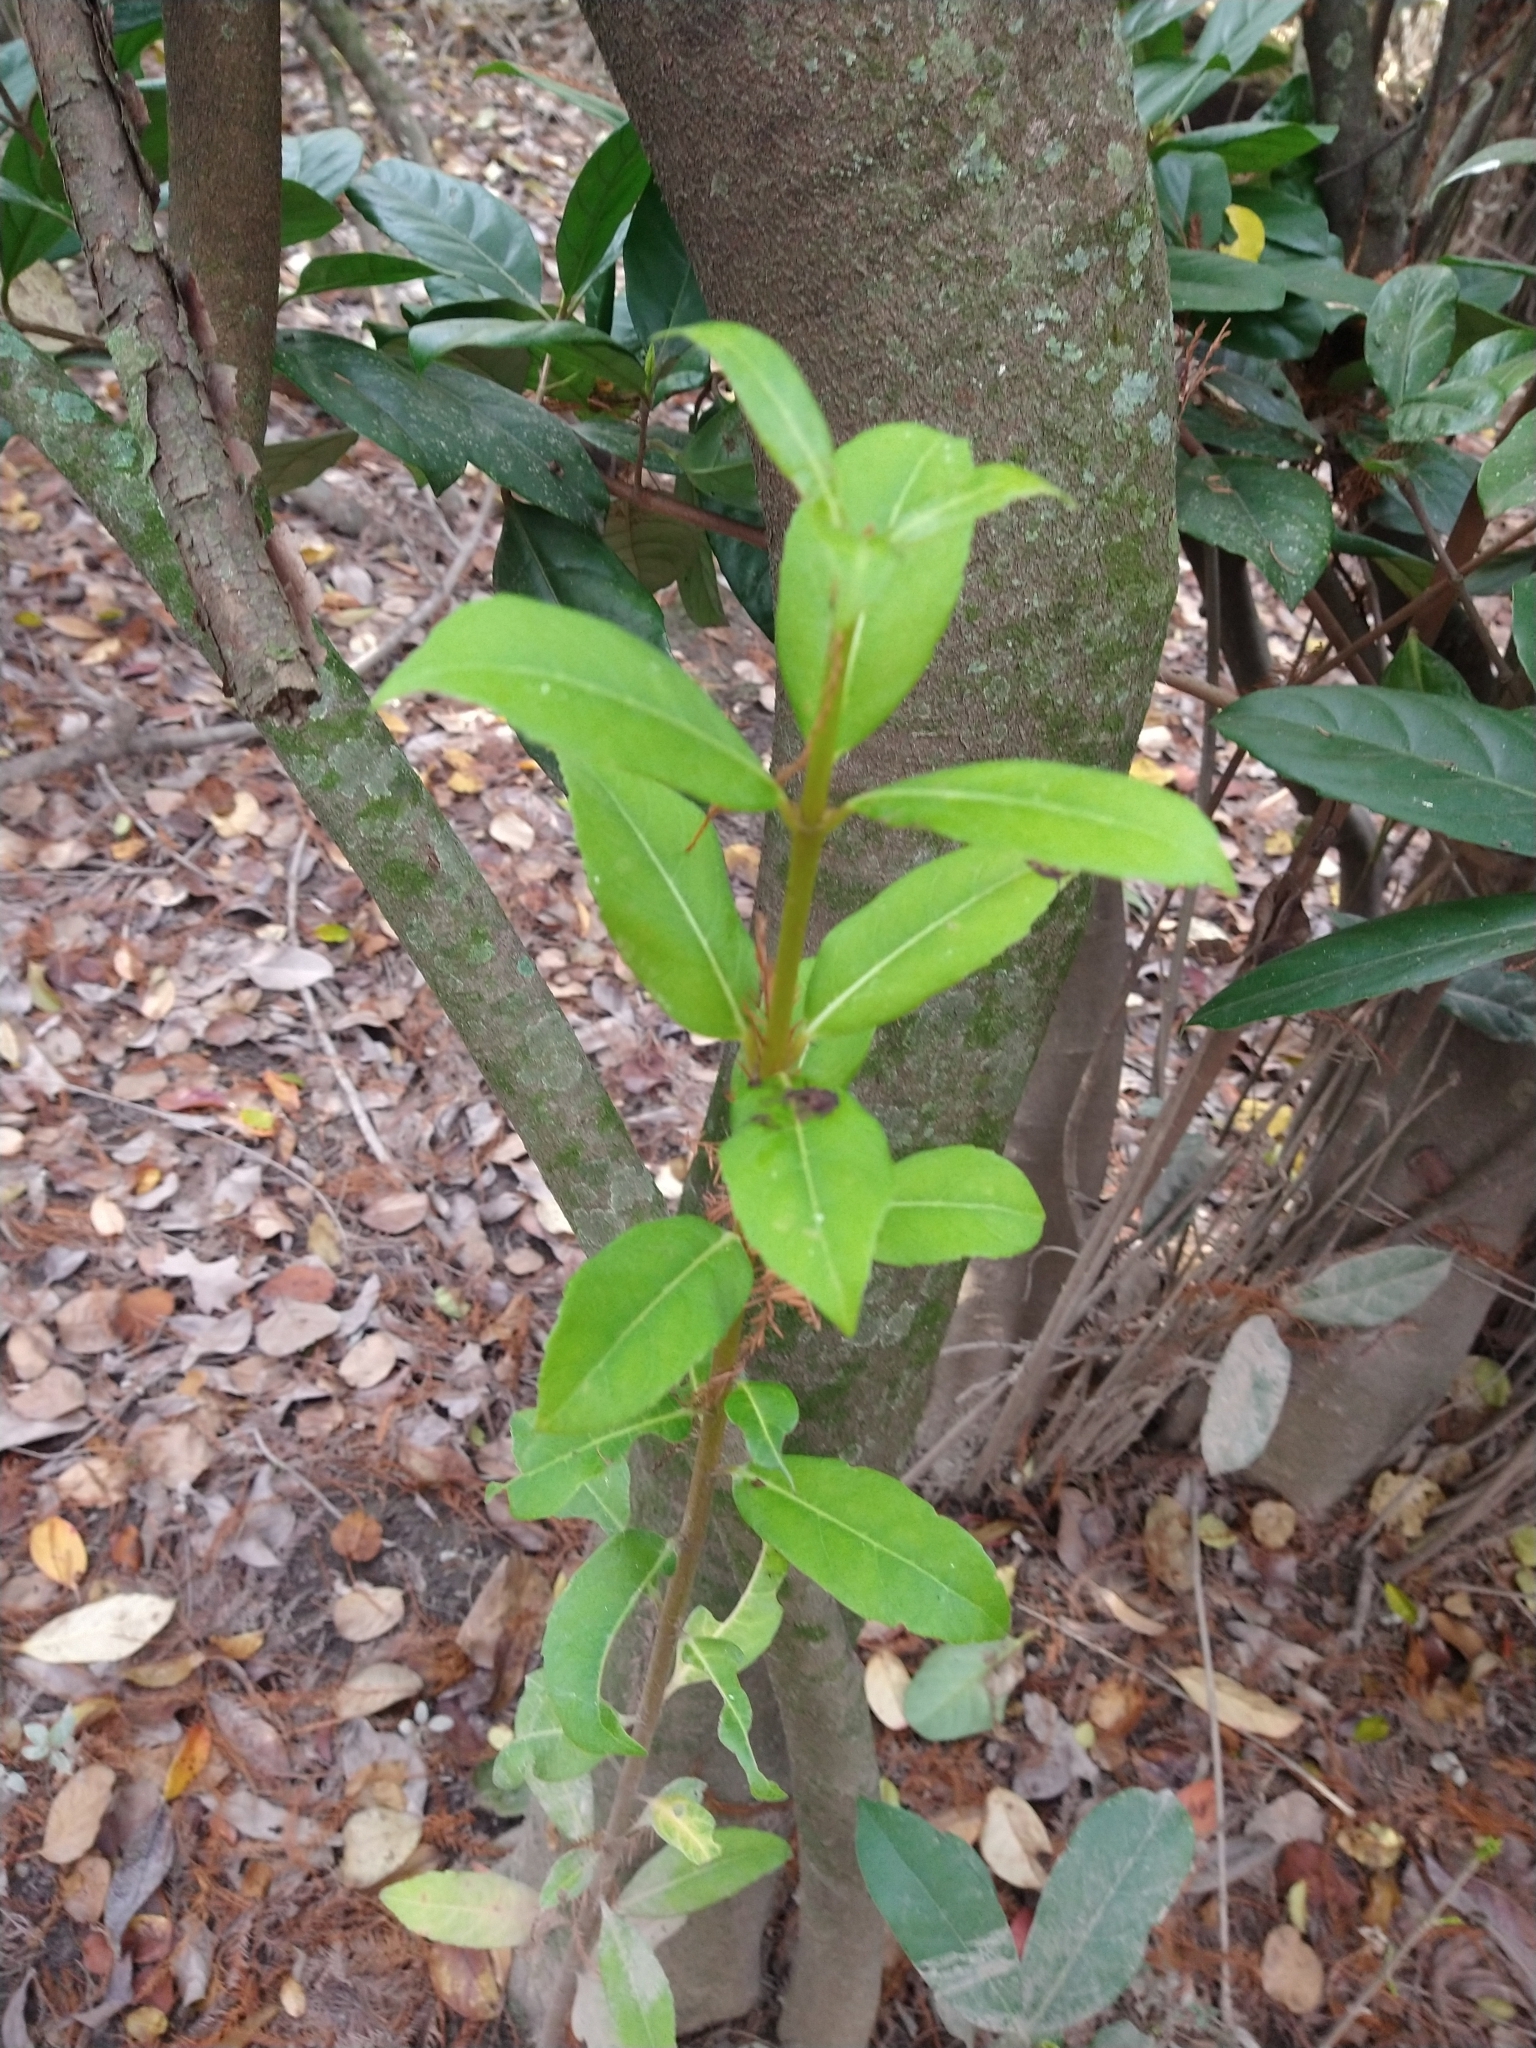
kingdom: Plantae
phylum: Tracheophyta
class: Magnoliopsida
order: Laurales
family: Lauraceae
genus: Laurus
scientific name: Laurus nobilis
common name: Bay
